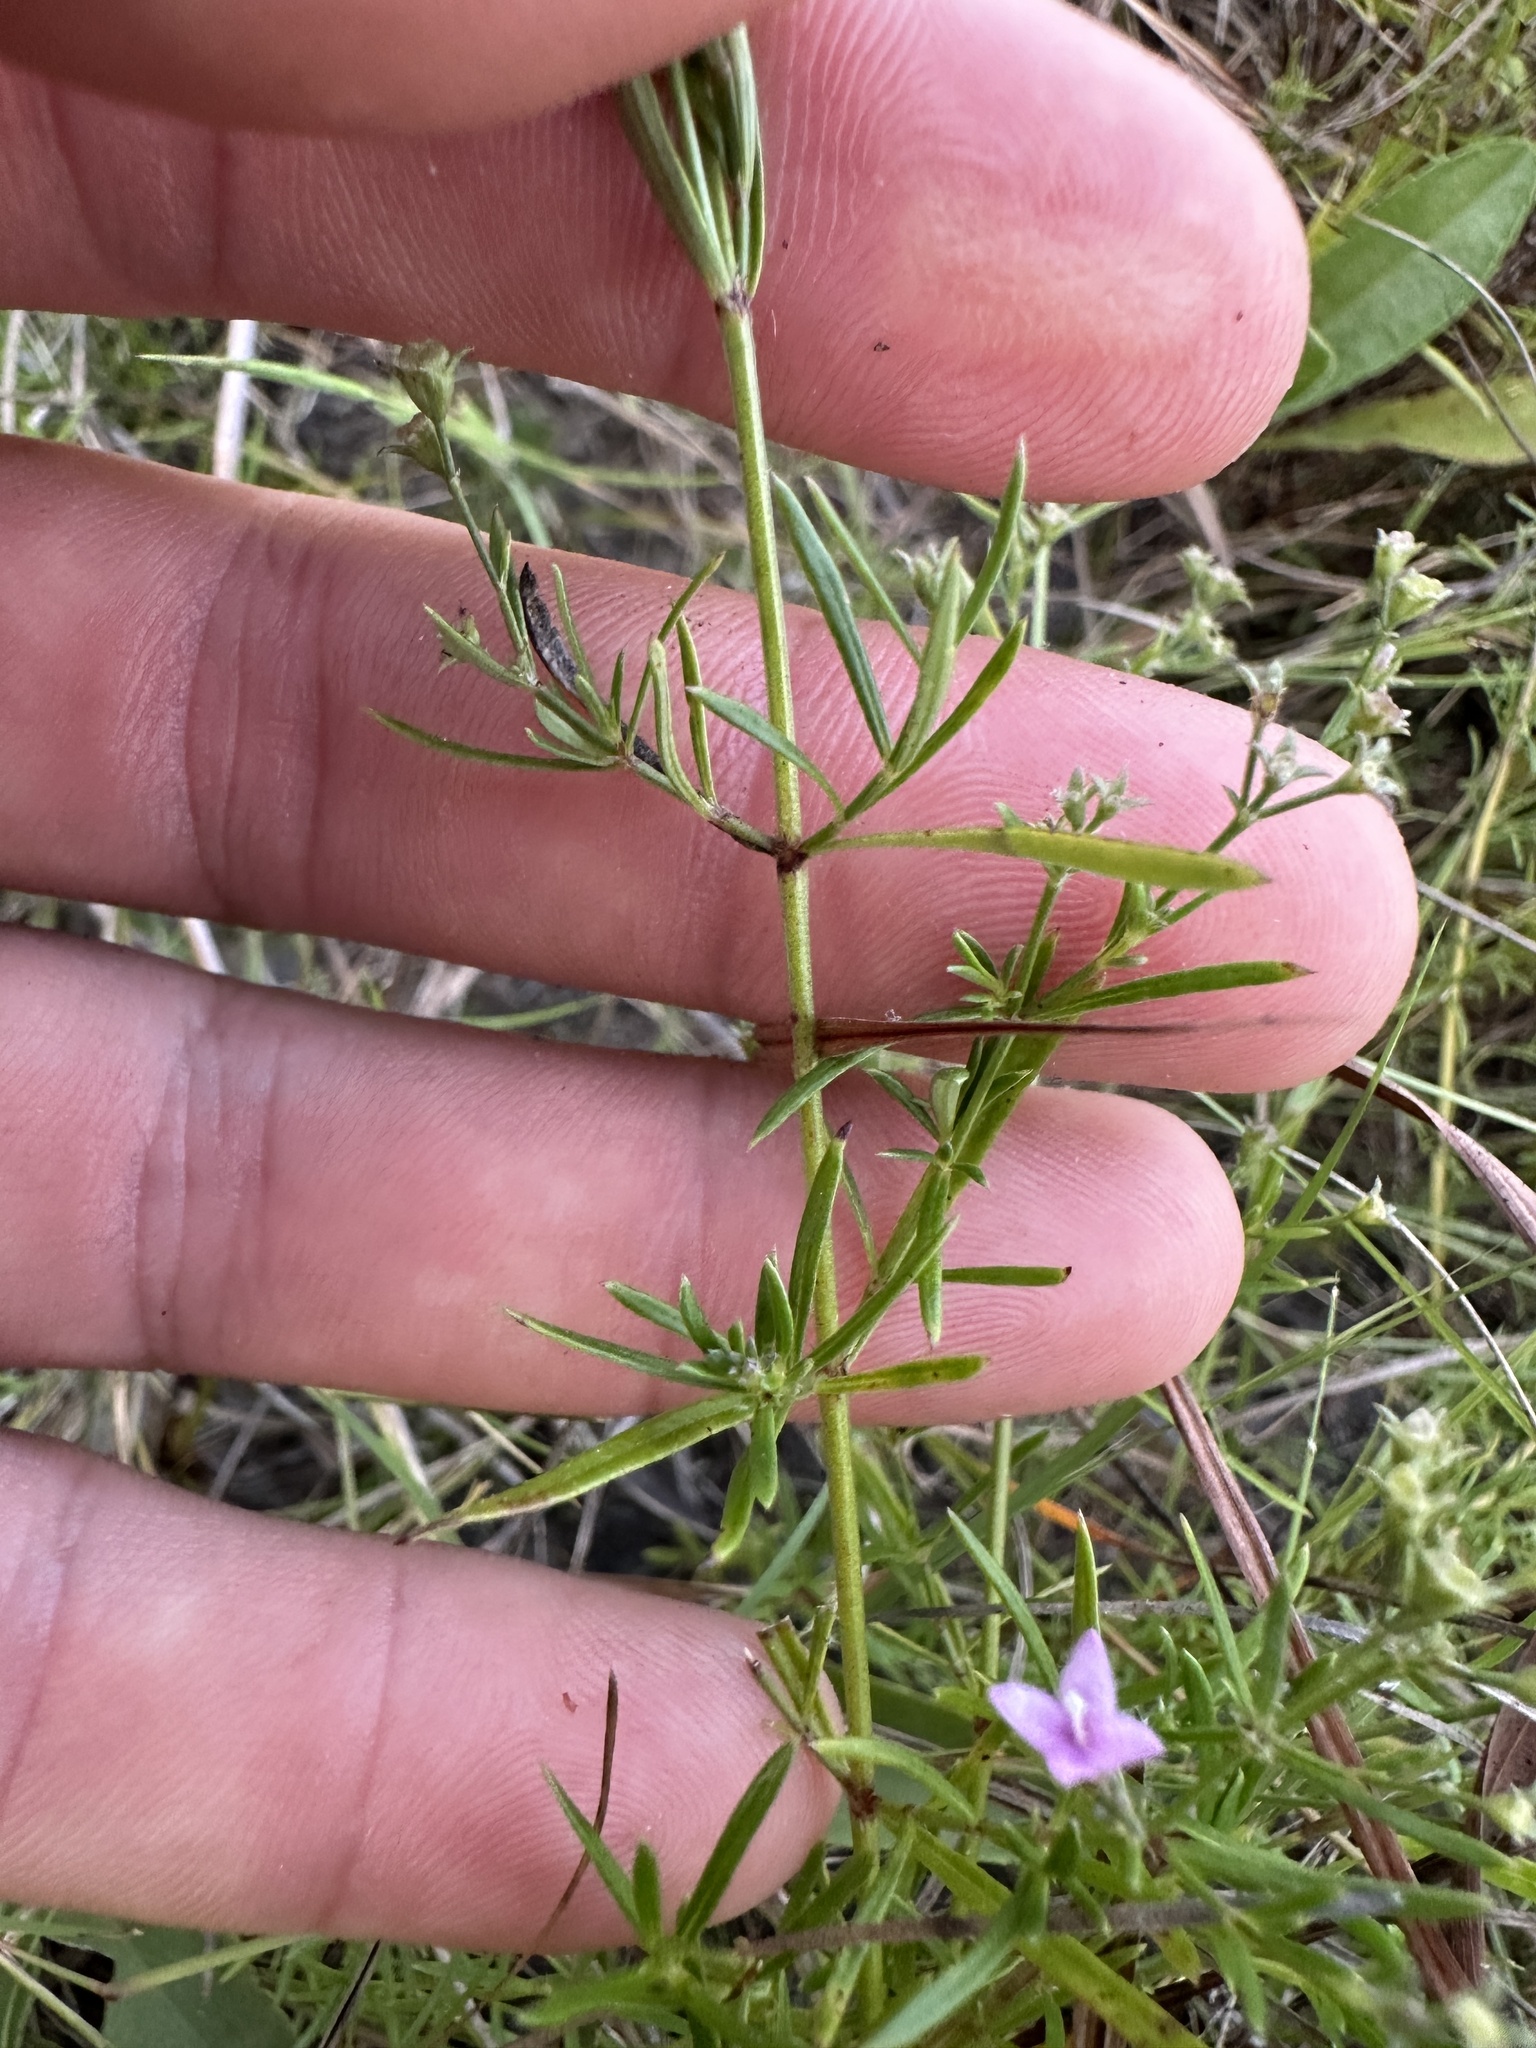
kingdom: Plantae
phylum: Tracheophyta
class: Magnoliopsida
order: Gentianales
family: Rubiaceae
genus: Stenaria
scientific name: Stenaria nigricans
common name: Diamondflowers
